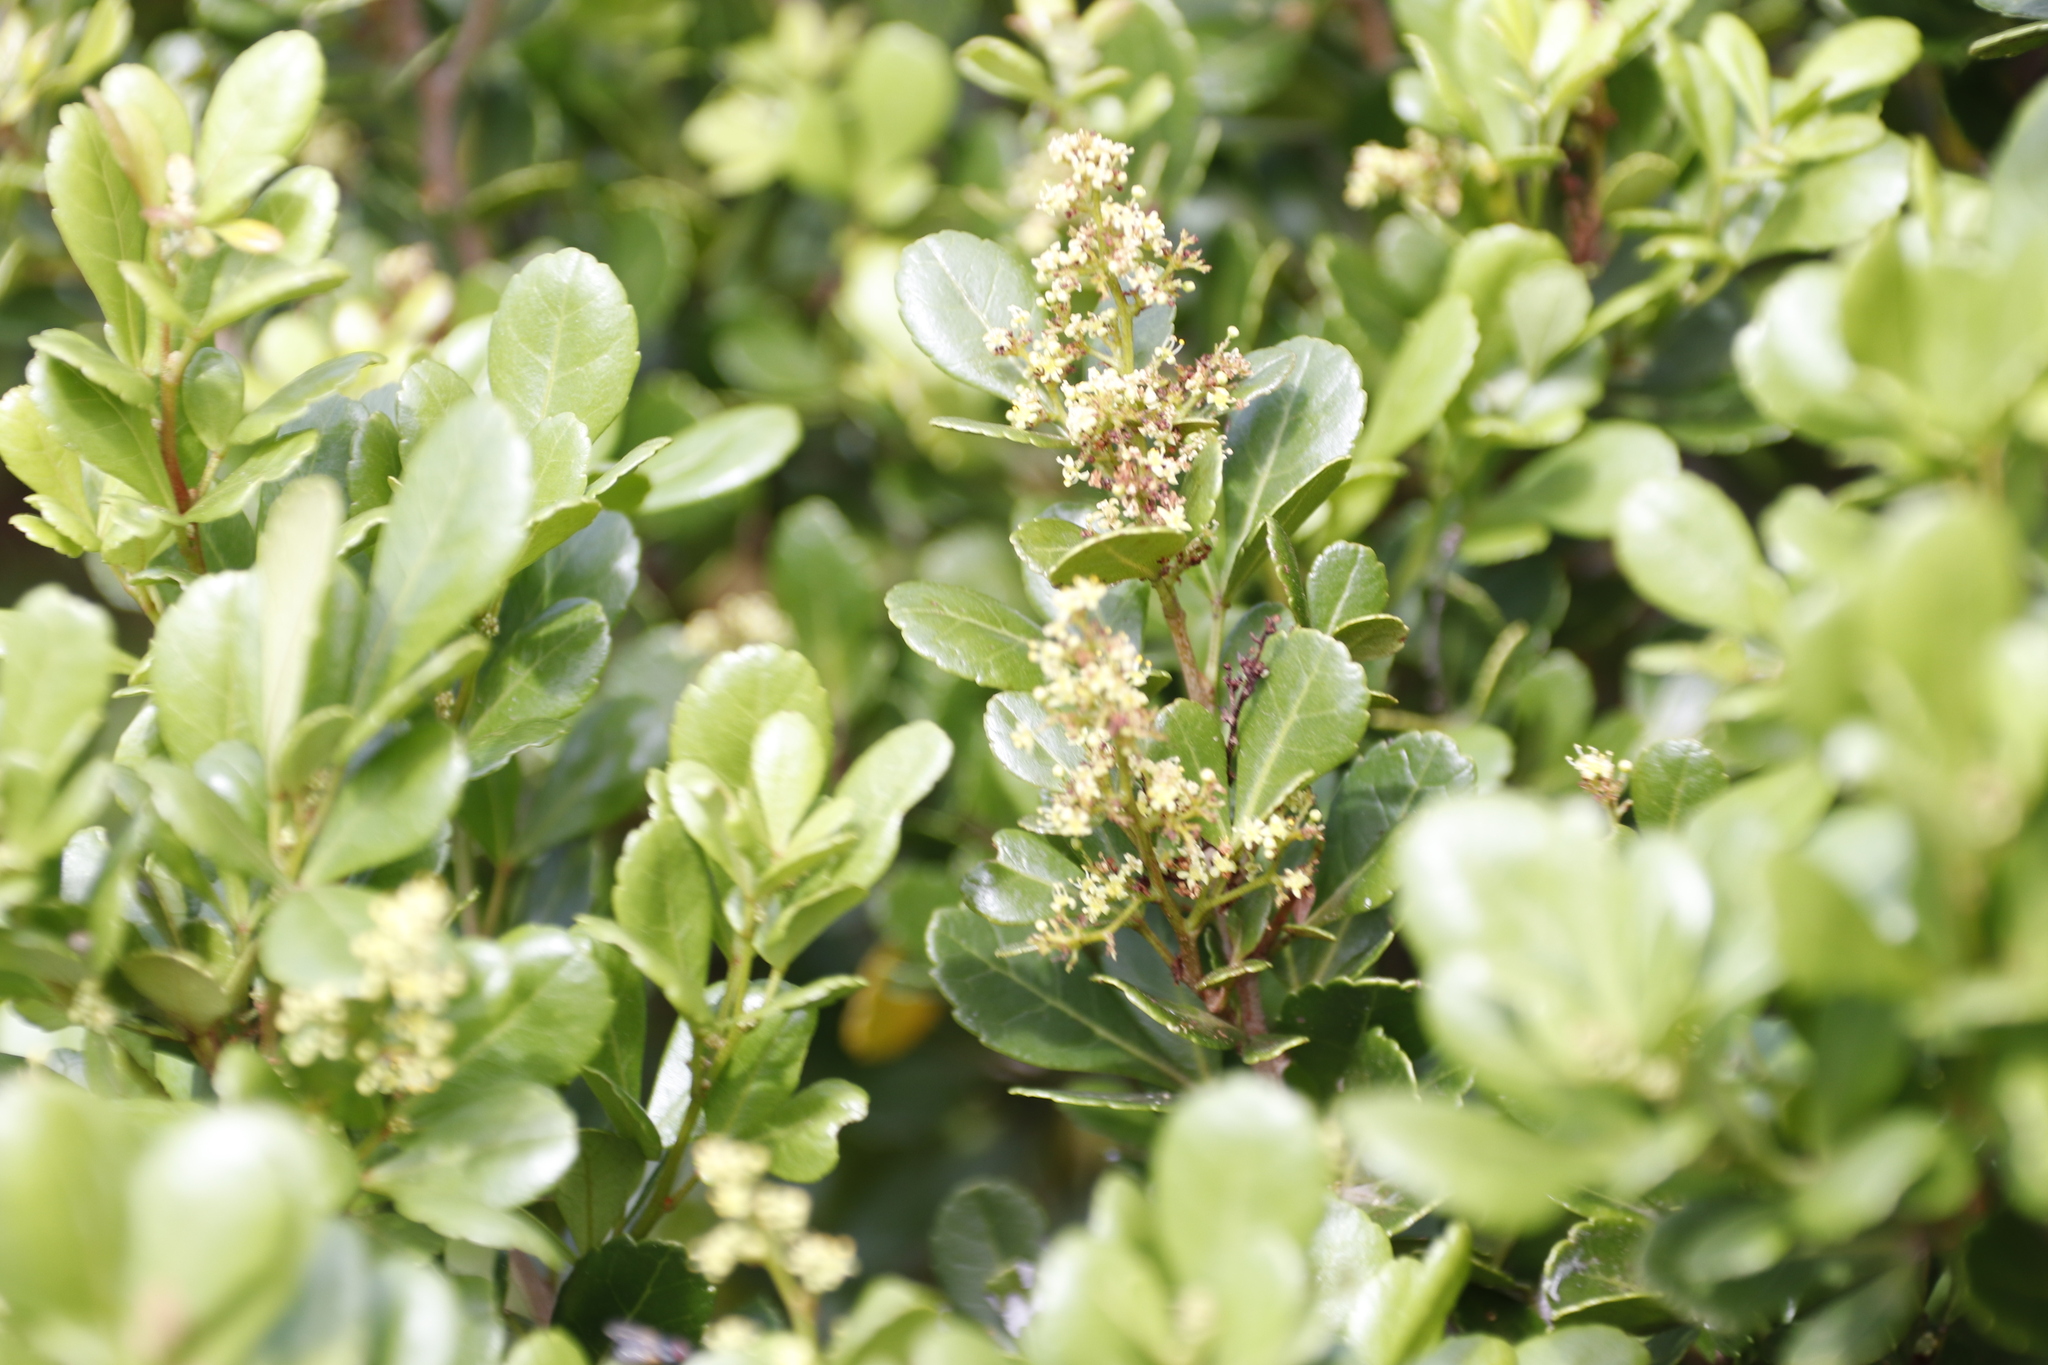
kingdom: Plantae
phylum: Tracheophyta
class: Magnoliopsida
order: Sapindales
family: Anacardiaceae
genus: Searsia
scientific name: Searsia crenata
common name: Crowberry
